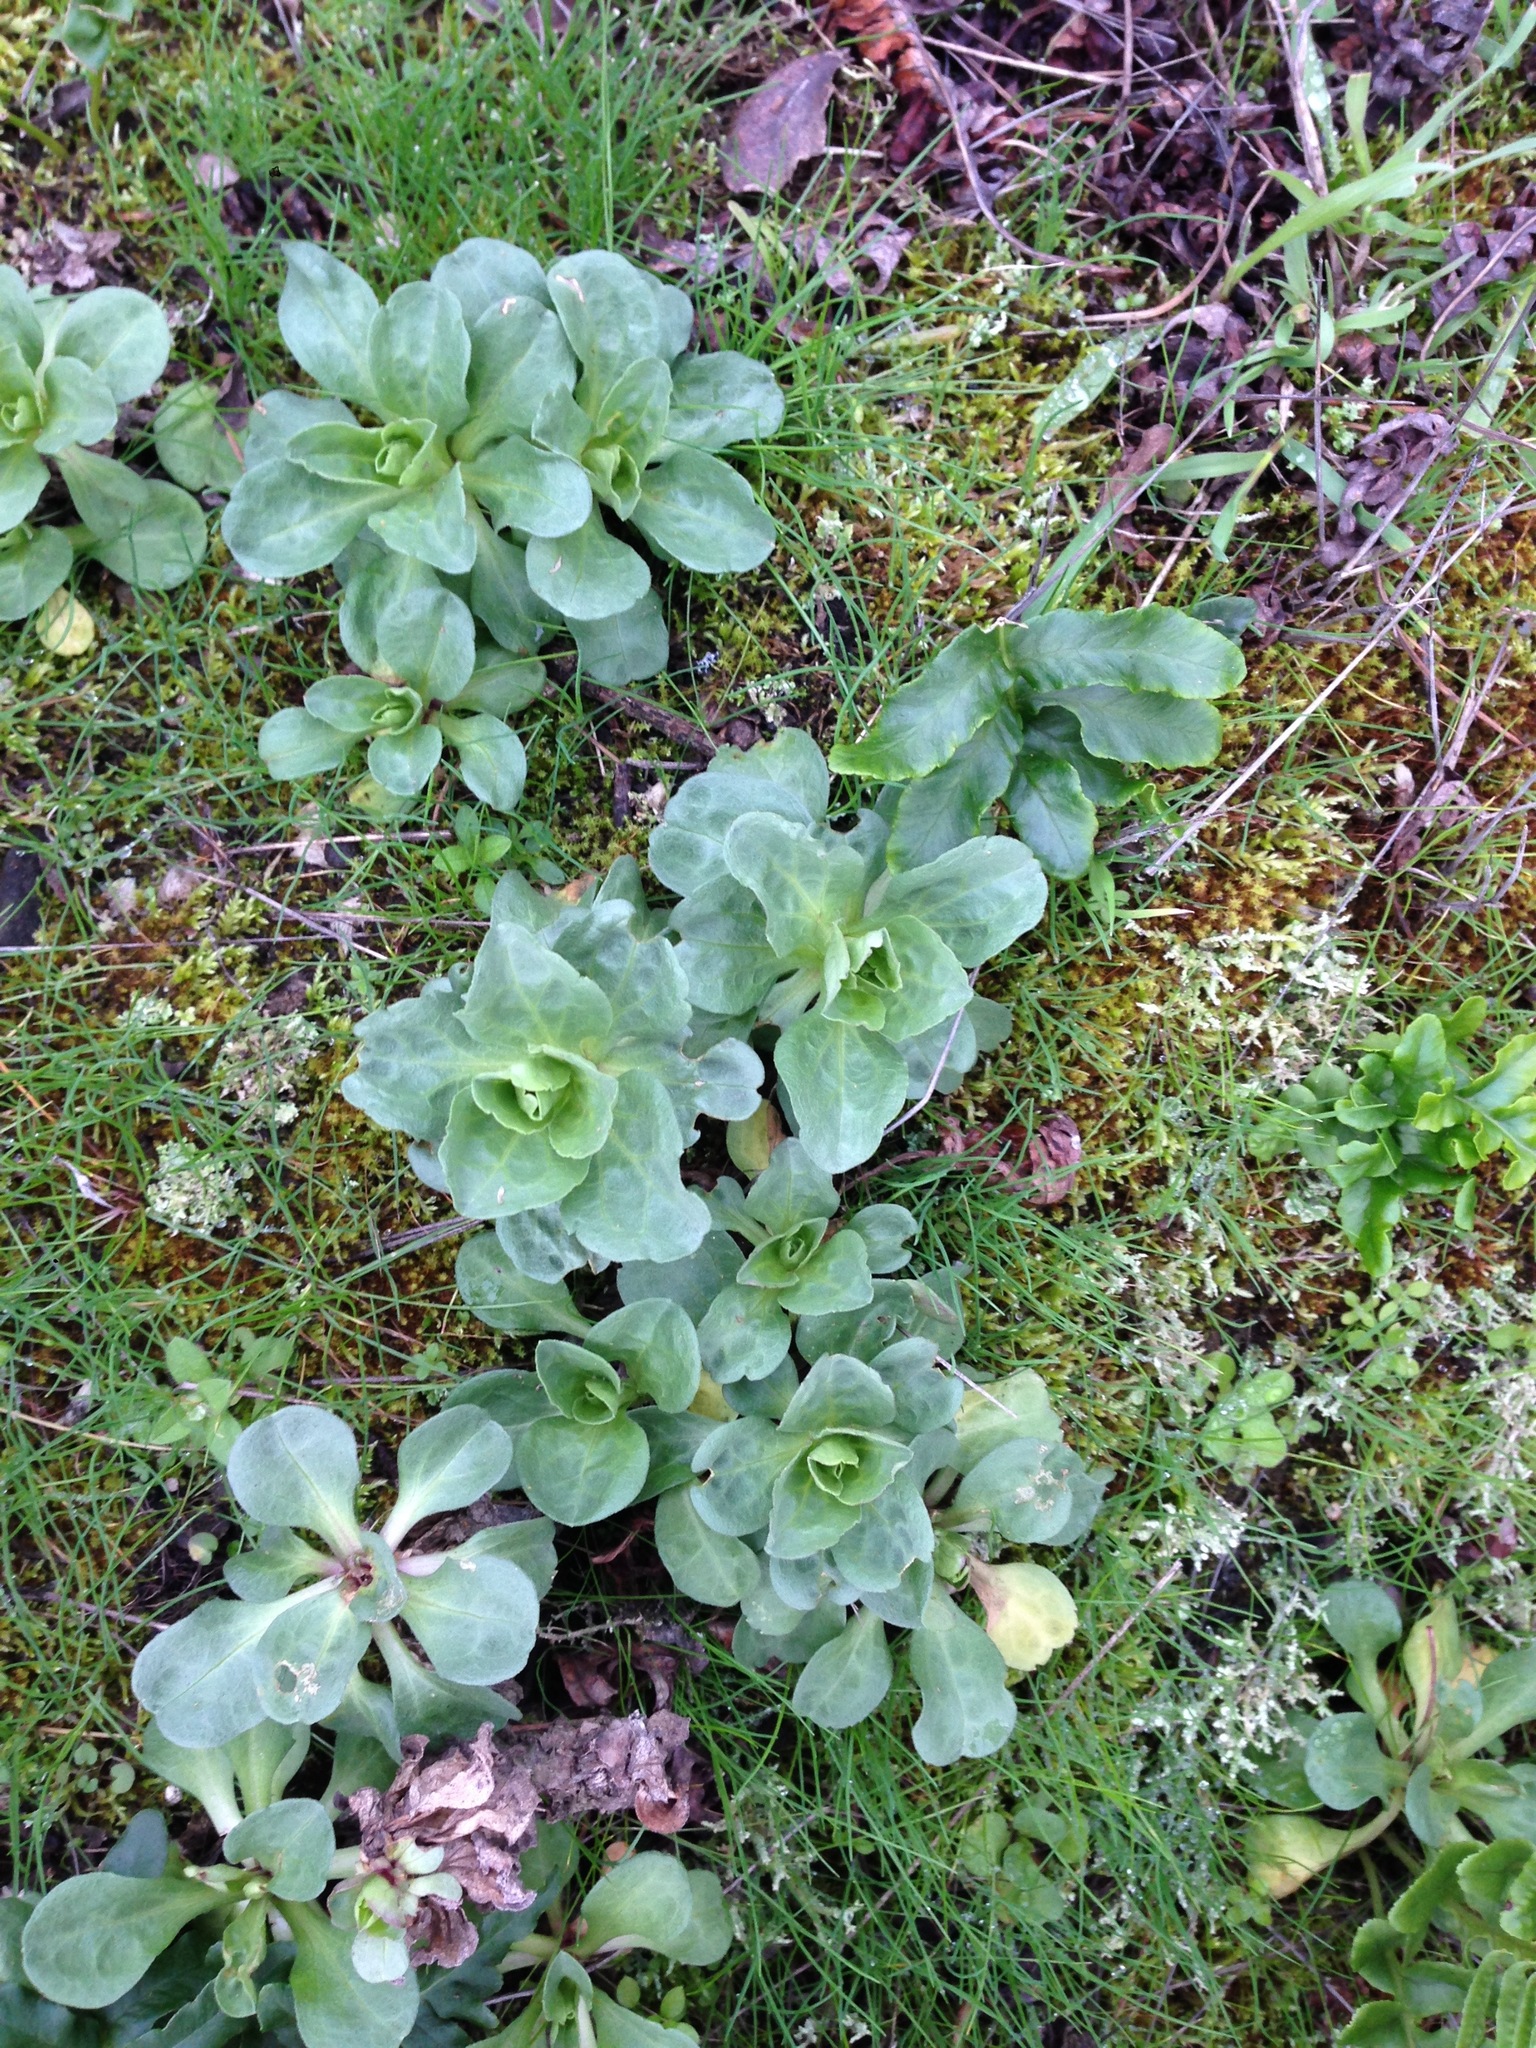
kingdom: Plantae
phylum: Tracheophyta
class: Magnoliopsida
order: Asterales
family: Asteraceae
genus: Erigeron
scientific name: Erigeron glaucus
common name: Seaside daisy
